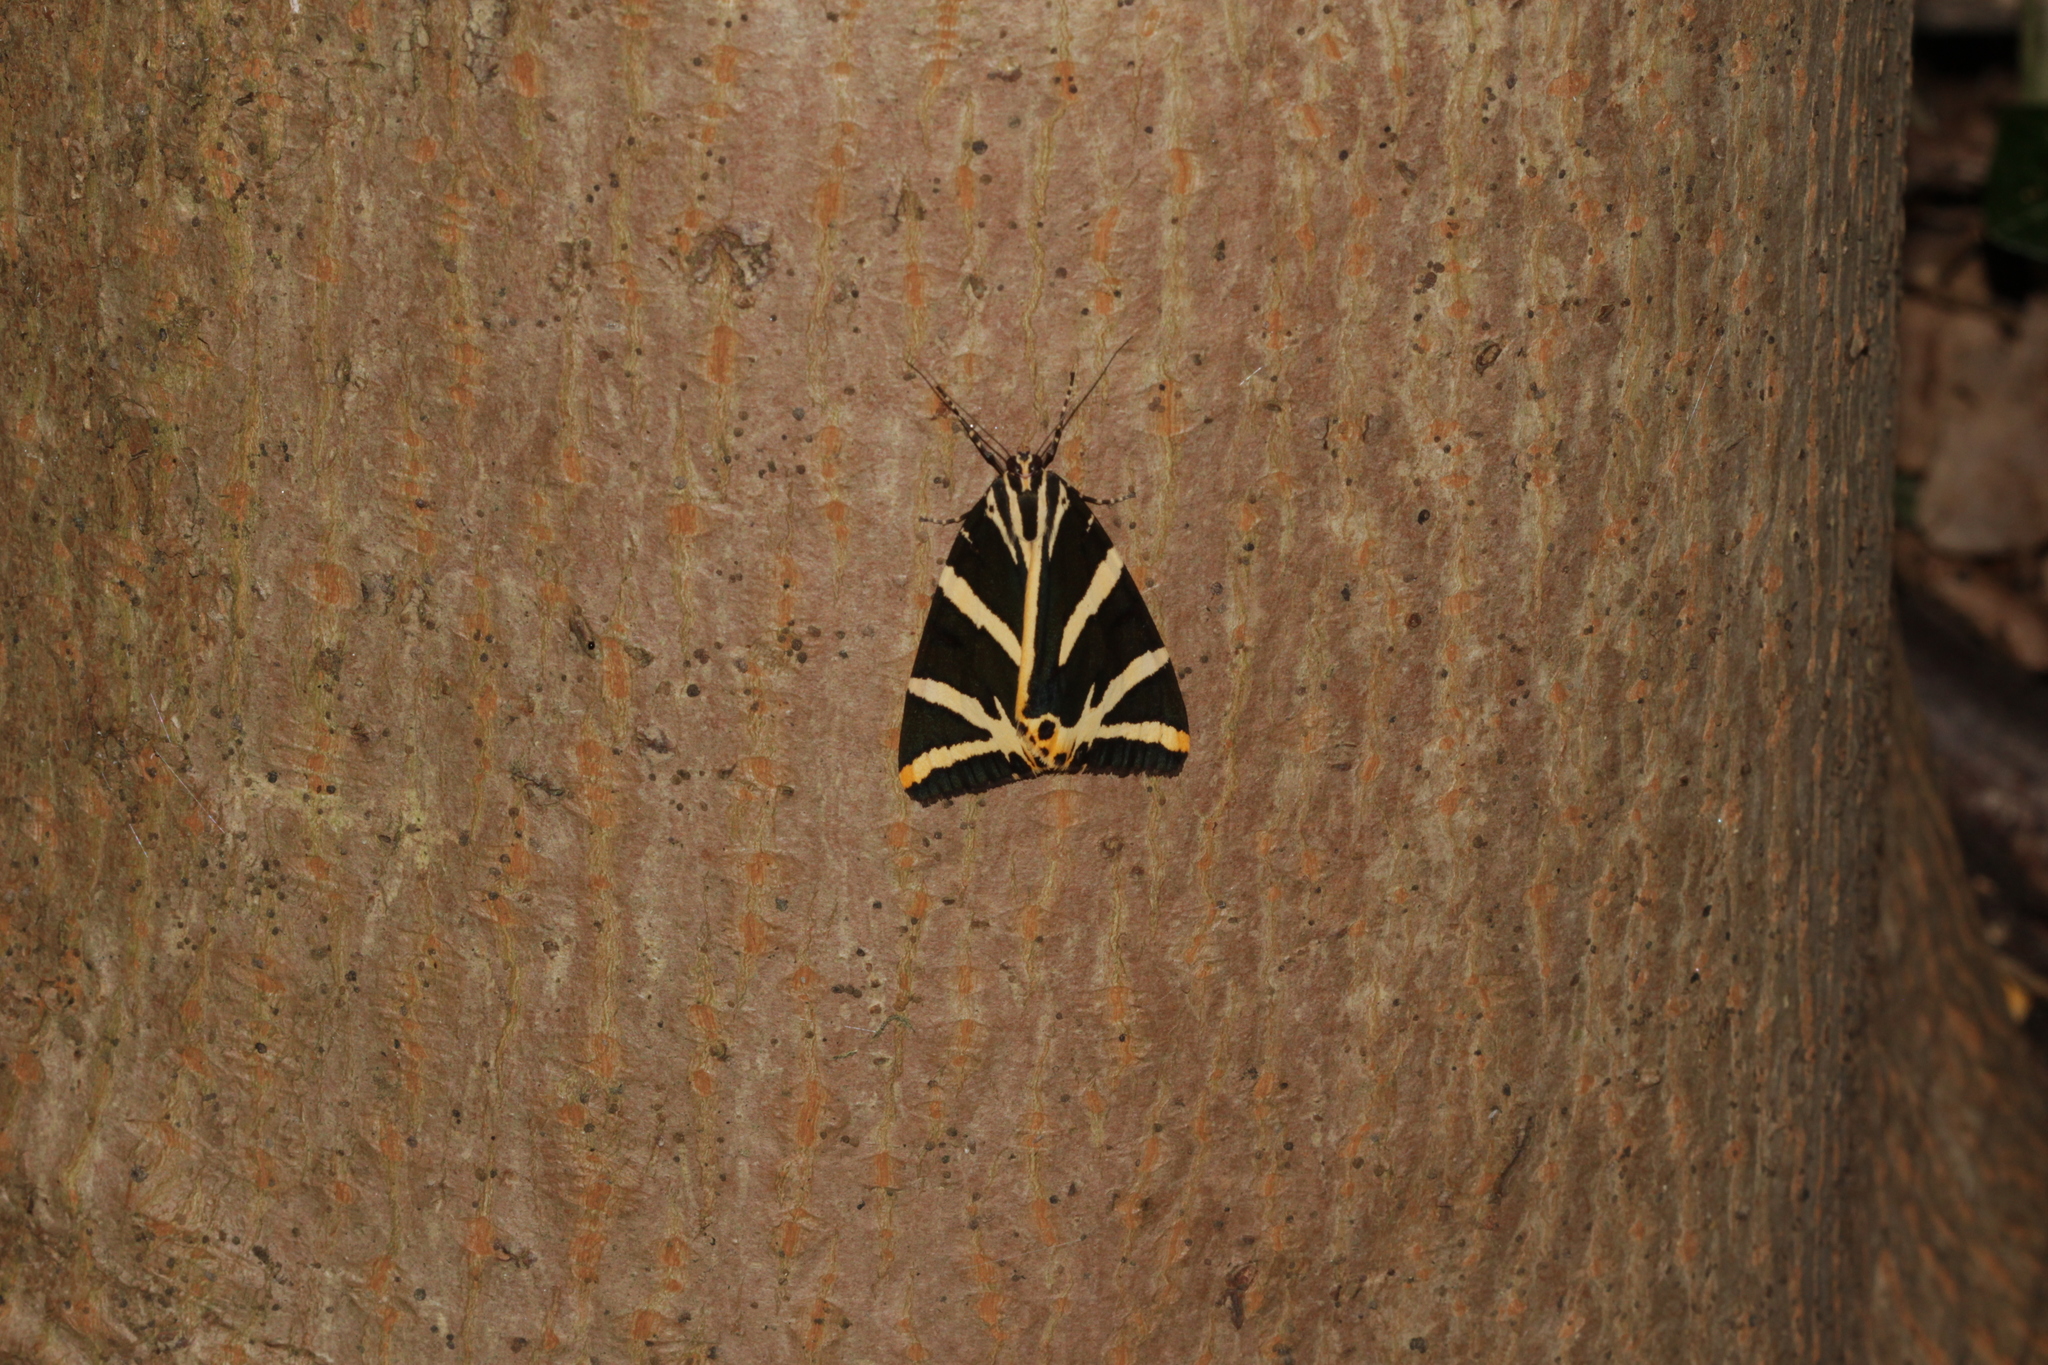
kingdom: Animalia
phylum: Arthropoda
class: Insecta
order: Lepidoptera
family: Erebidae
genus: Euplagia
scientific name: Euplagia quadripunctaria
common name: Jersey tiger
